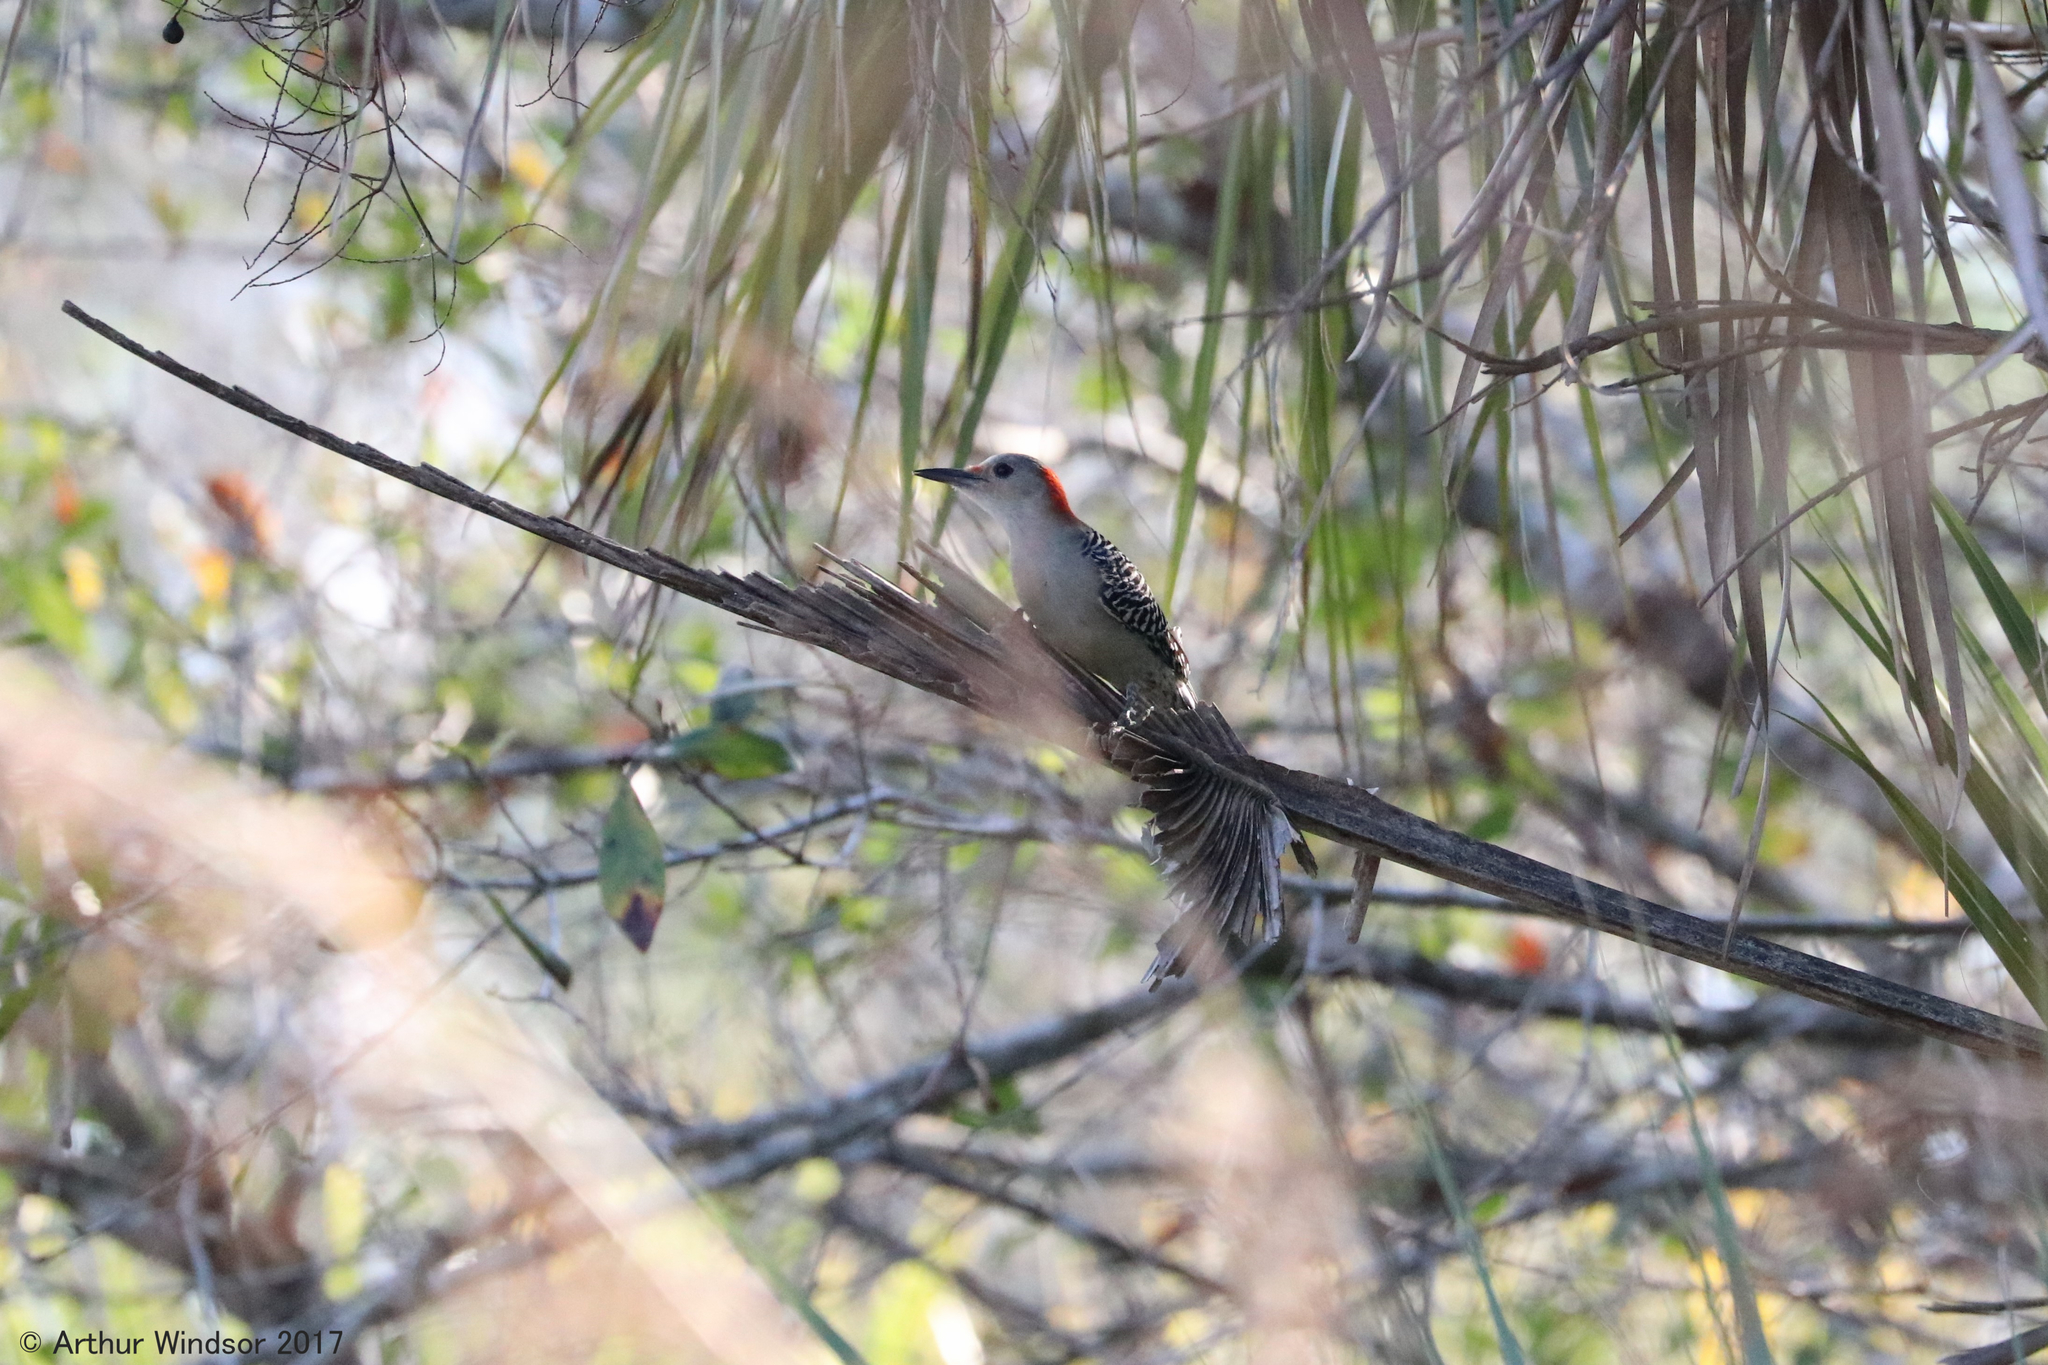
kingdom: Animalia
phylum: Chordata
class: Aves
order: Piciformes
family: Picidae
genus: Melanerpes
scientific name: Melanerpes carolinus
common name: Red-bellied woodpecker
